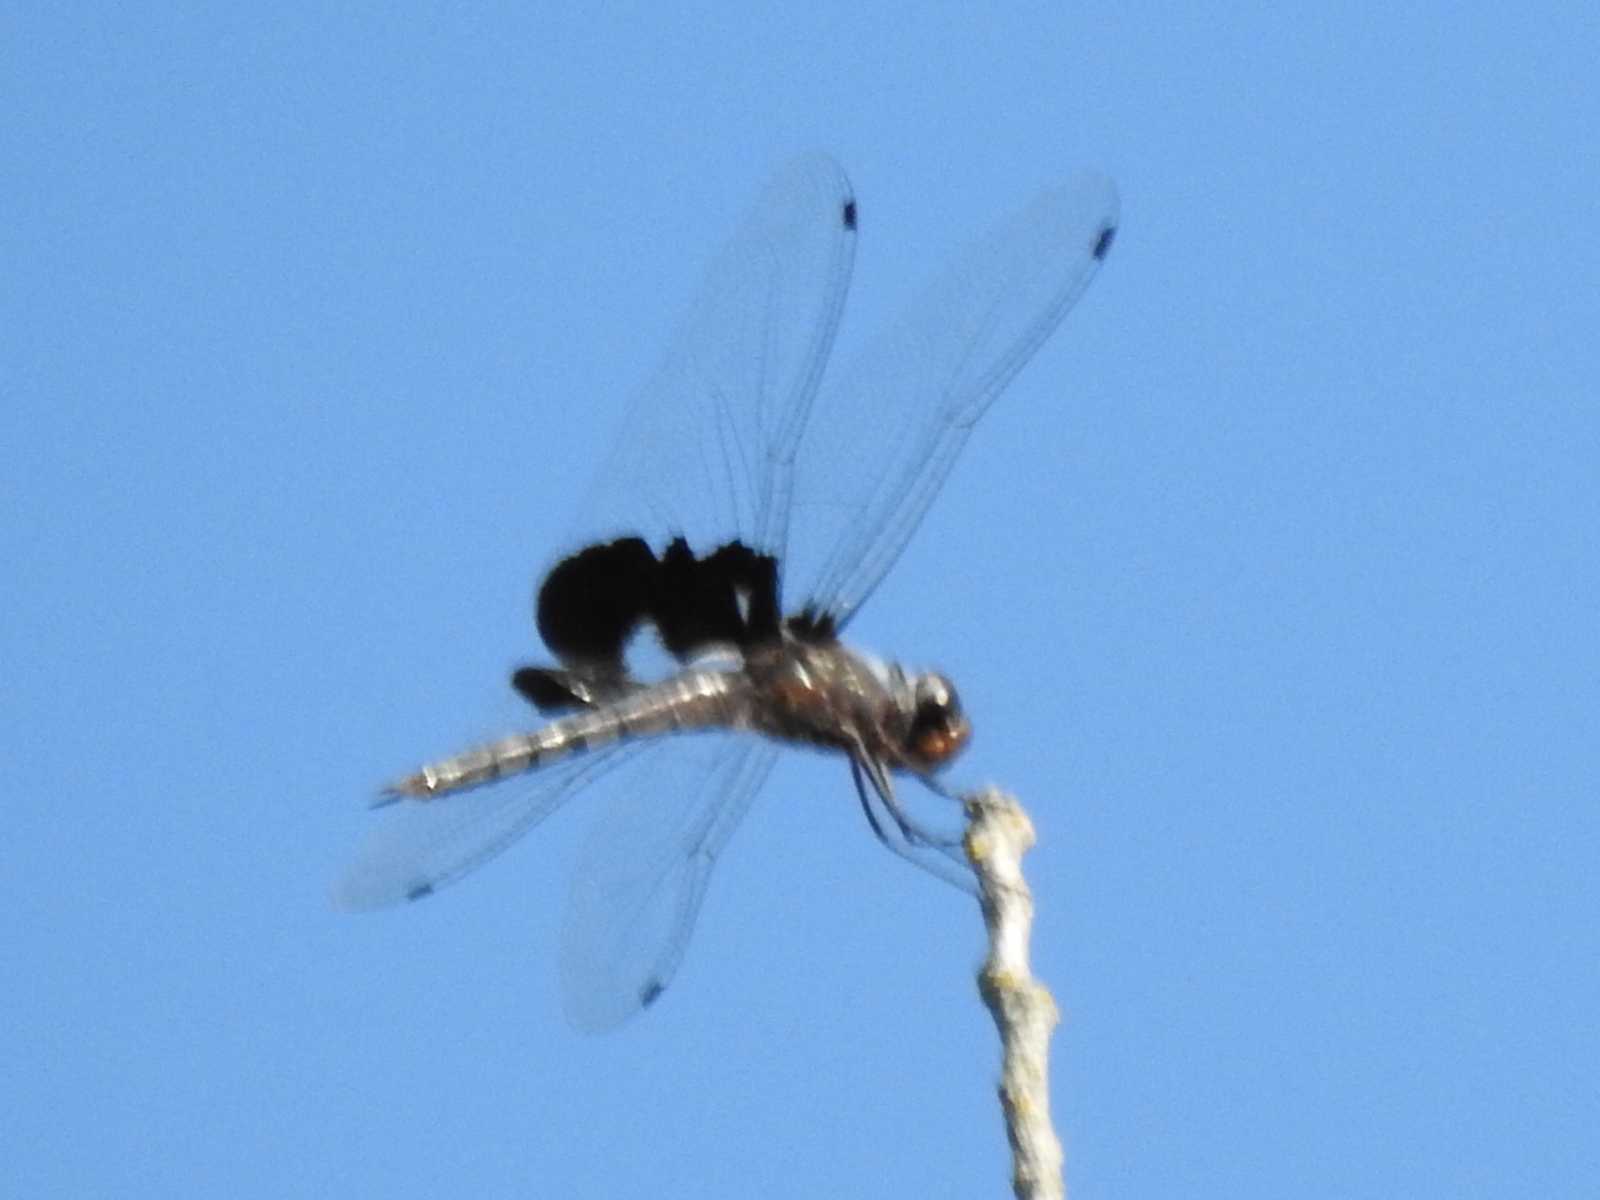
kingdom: Animalia
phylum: Arthropoda
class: Insecta
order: Odonata
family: Libellulidae
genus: Tramea
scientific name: Tramea lacerata
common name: Black saddlebags
